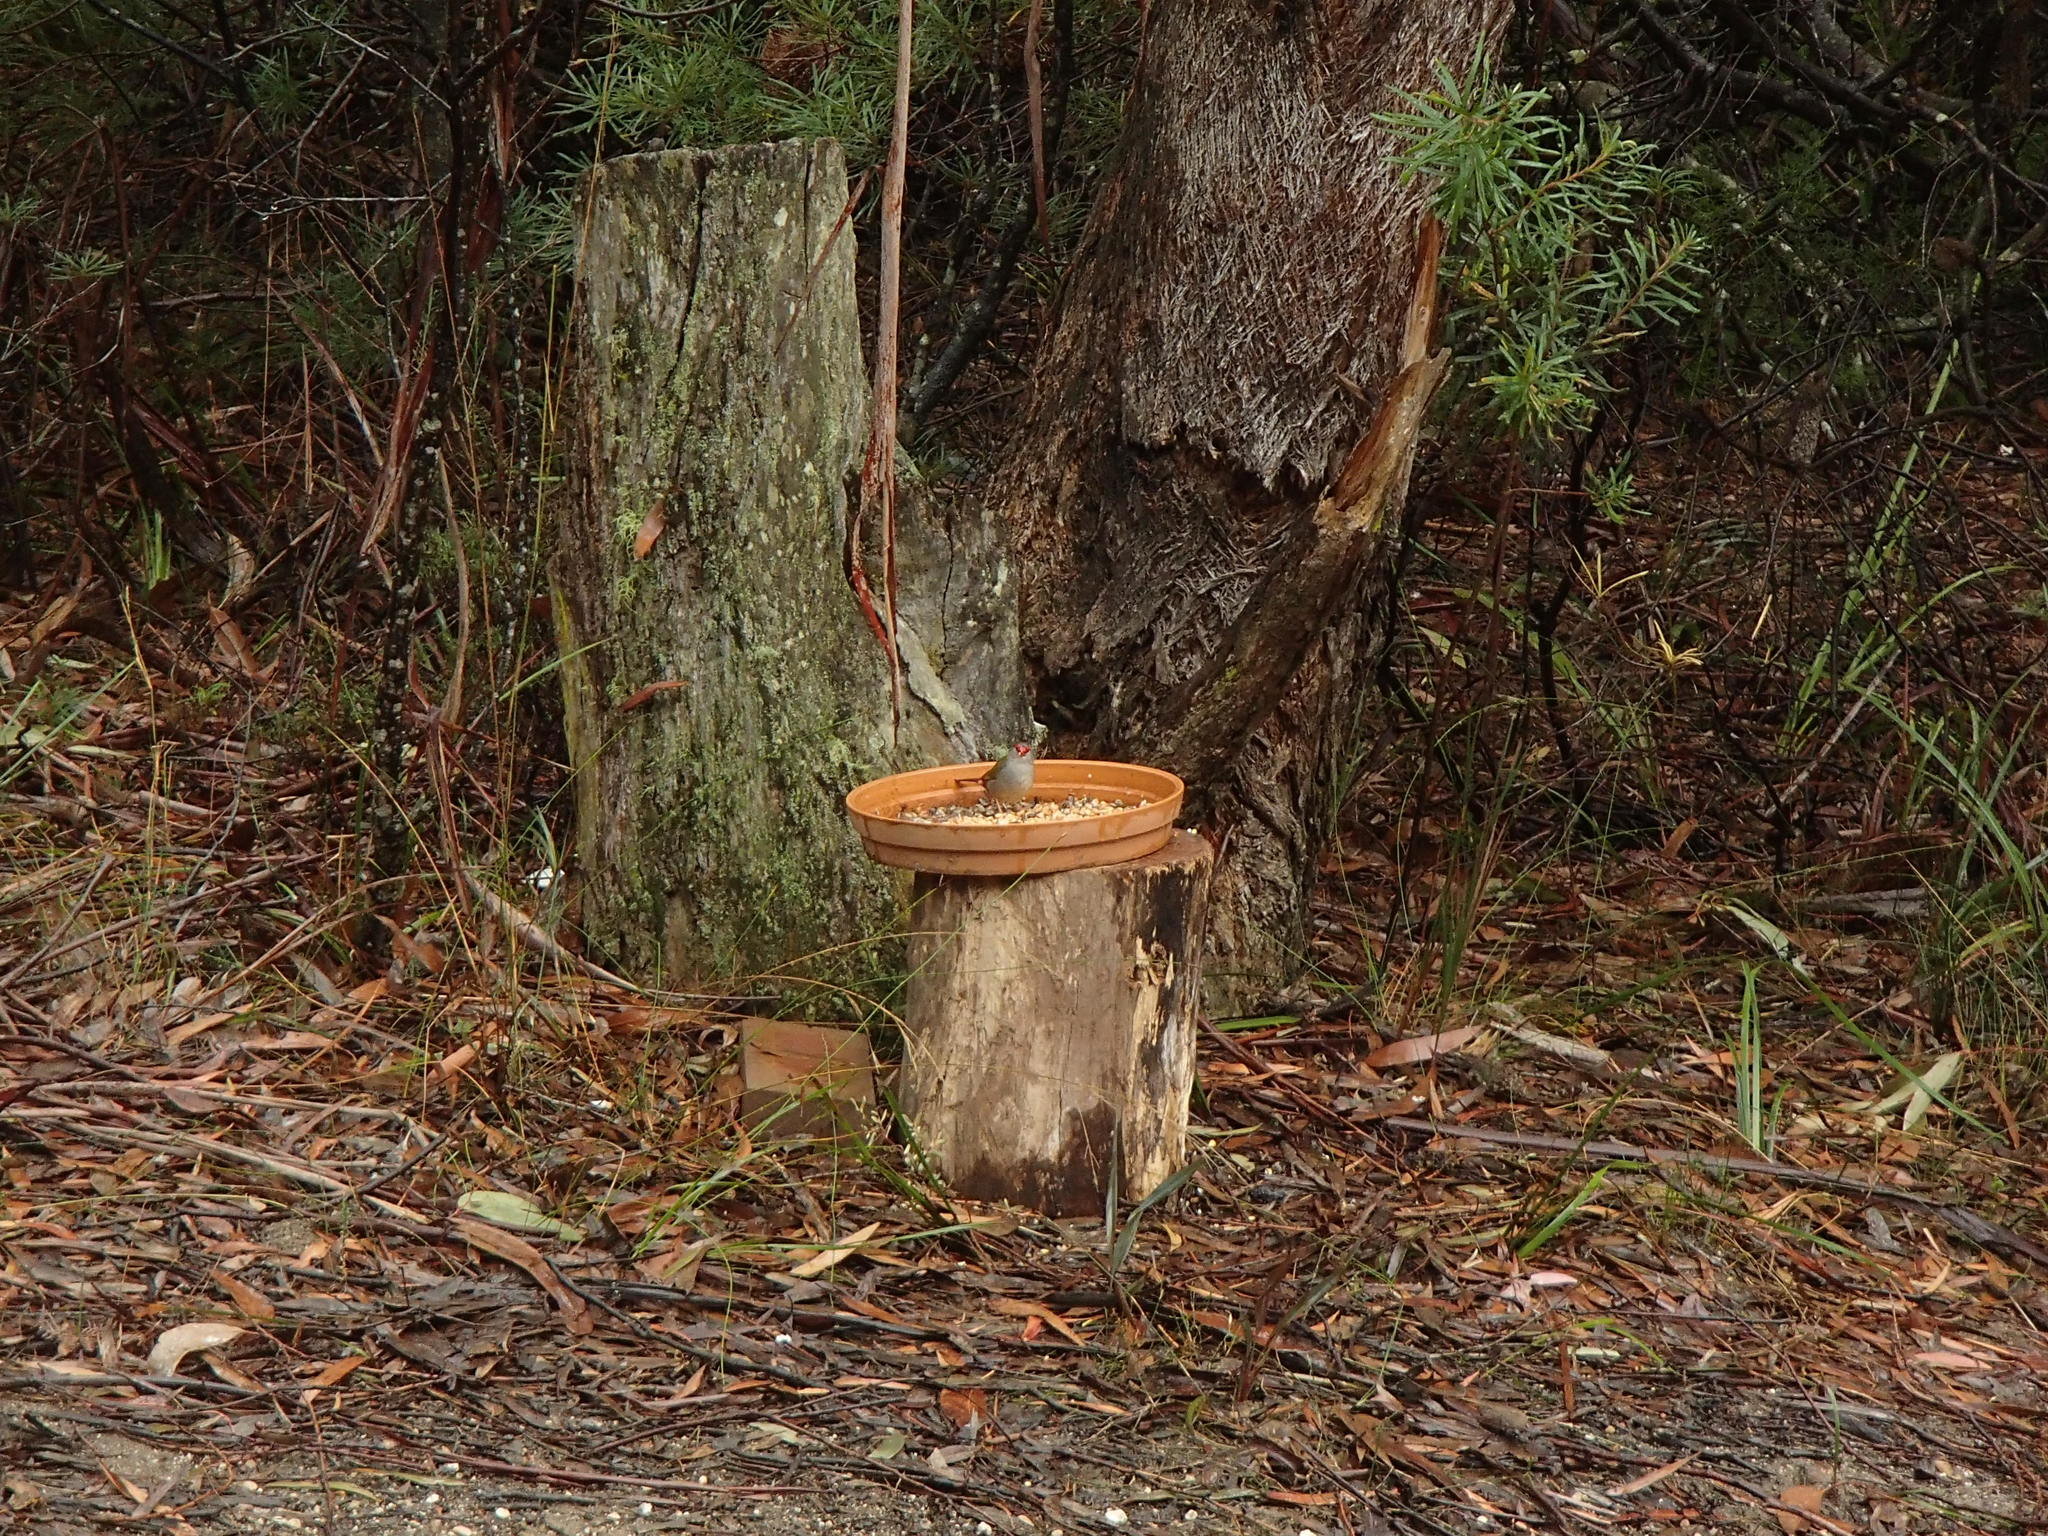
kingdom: Animalia
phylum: Chordata
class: Aves
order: Passeriformes
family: Estrildidae
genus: Neochmia
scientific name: Neochmia temporalis
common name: Red-browed finch
